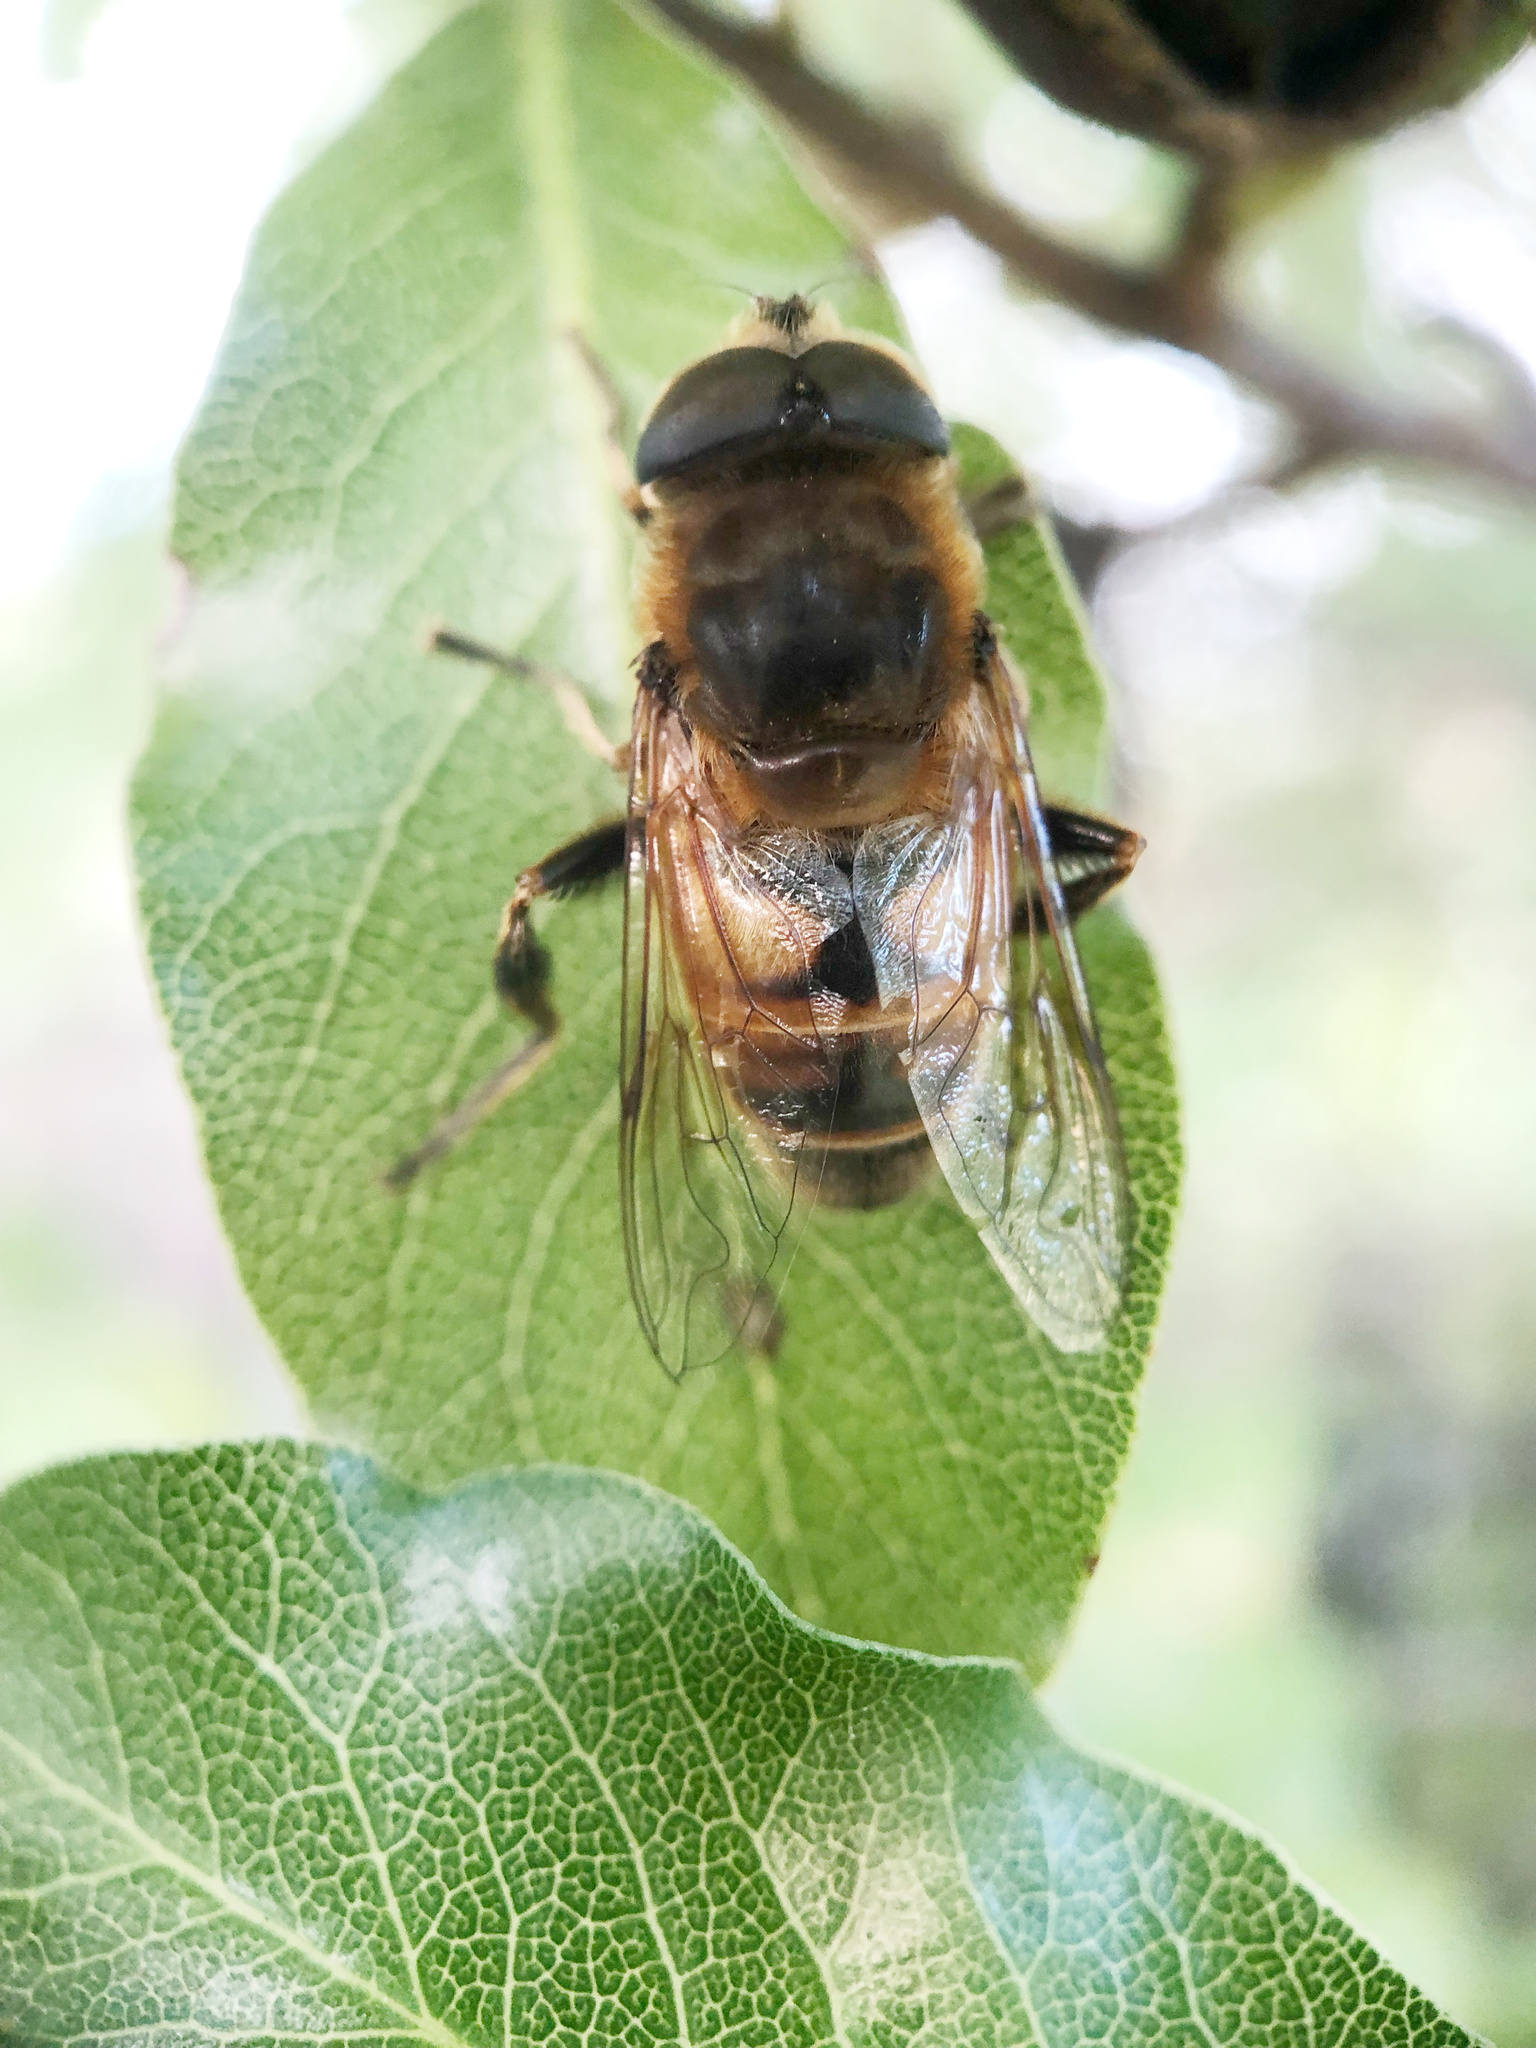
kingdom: Animalia
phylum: Arthropoda
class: Insecta
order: Diptera
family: Syrphidae
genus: Eristalis
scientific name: Eristalis tenax
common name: Drone fly
